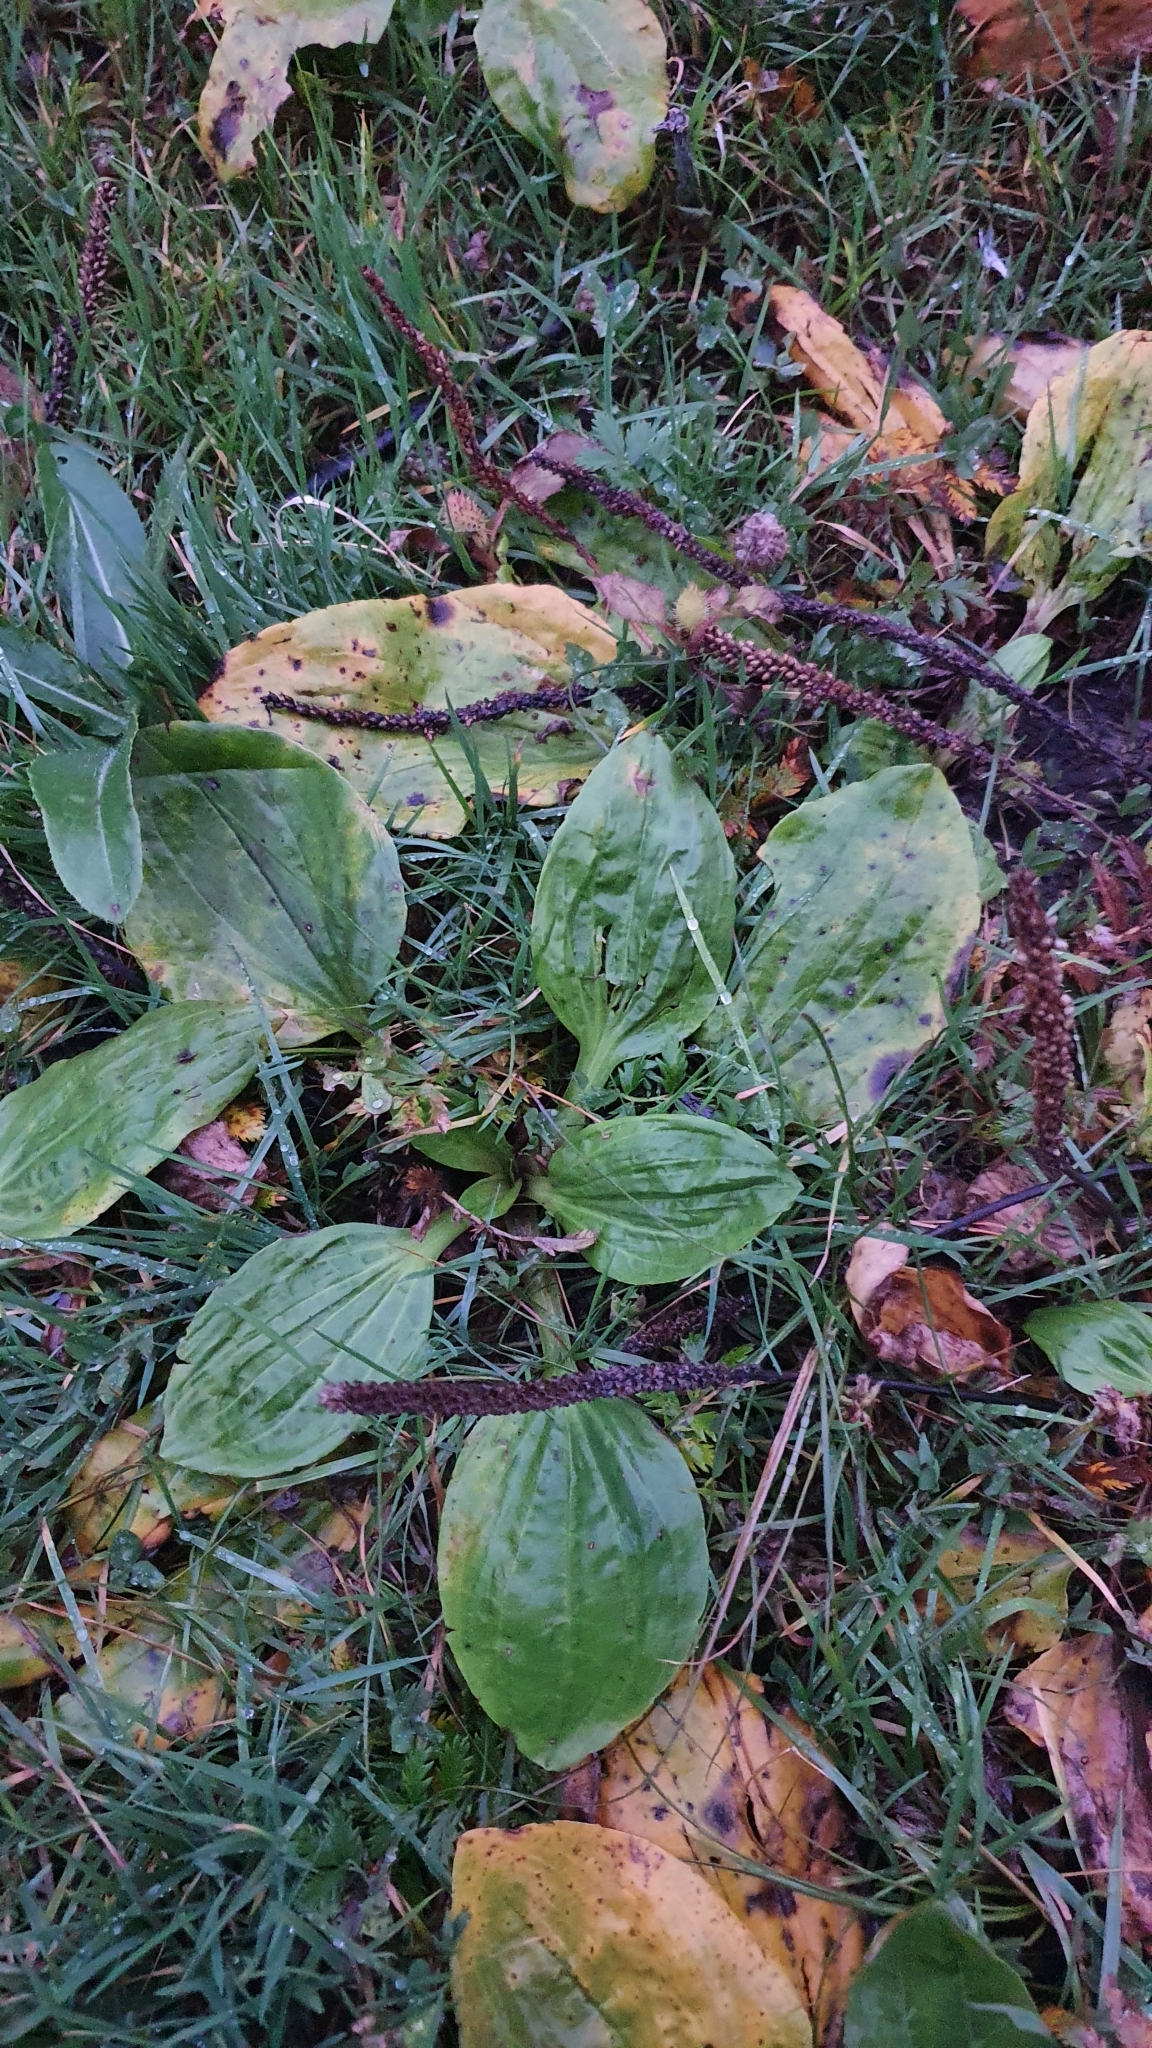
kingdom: Plantae
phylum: Tracheophyta
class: Magnoliopsida
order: Lamiales
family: Plantaginaceae
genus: Plantago
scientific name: Plantago major
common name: Common plantain
